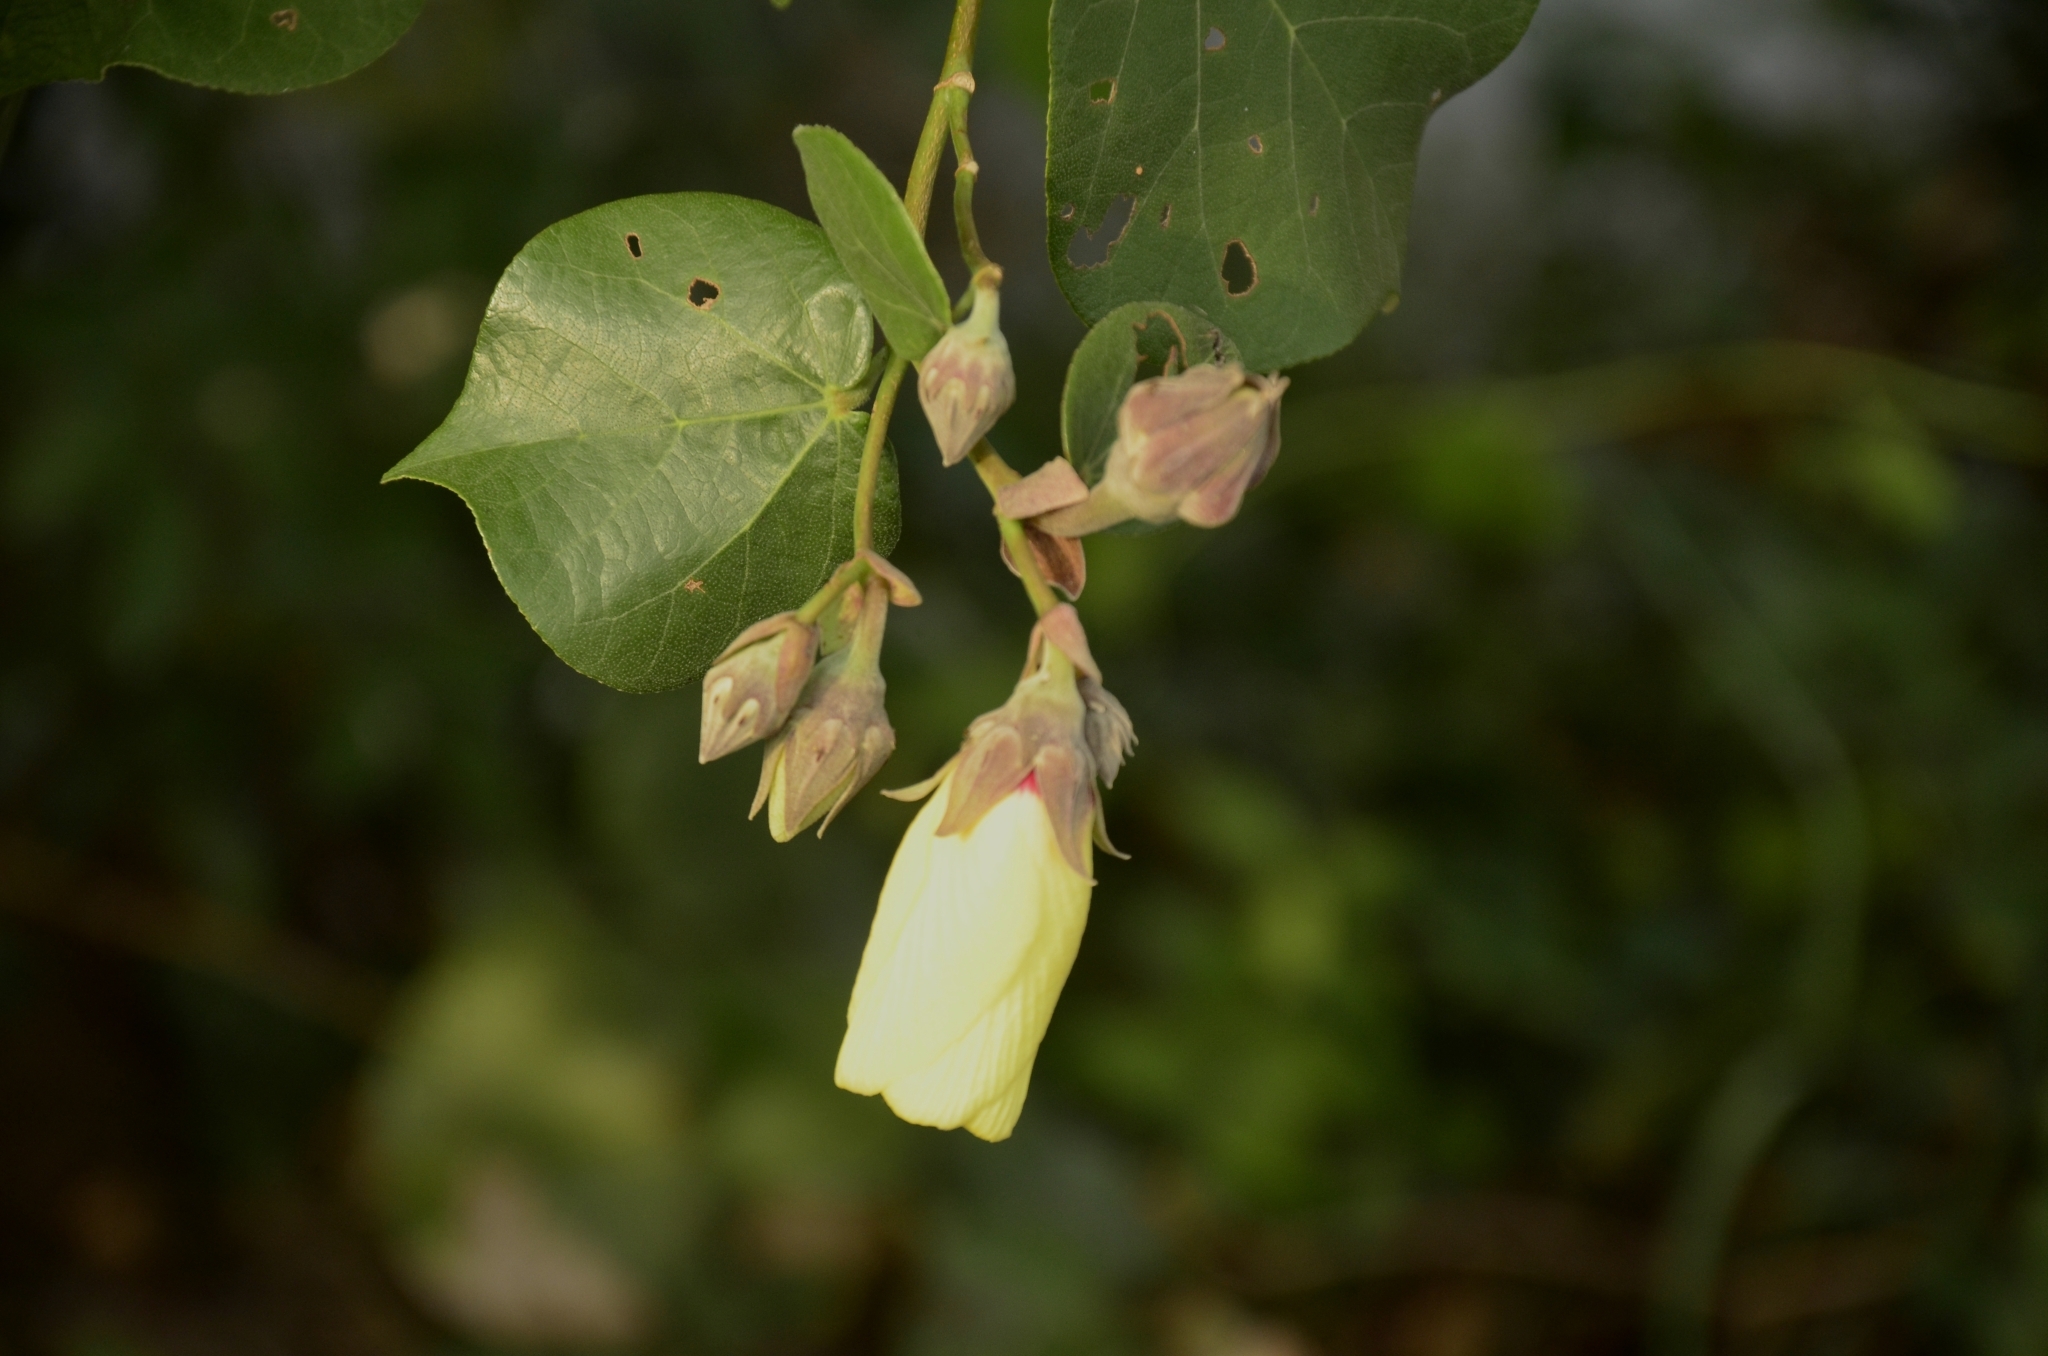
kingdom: Plantae
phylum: Tracheophyta
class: Magnoliopsida
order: Malvales
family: Malvaceae
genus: Talipariti
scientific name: Talipariti tiliaceum
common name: Sea hibiscus
